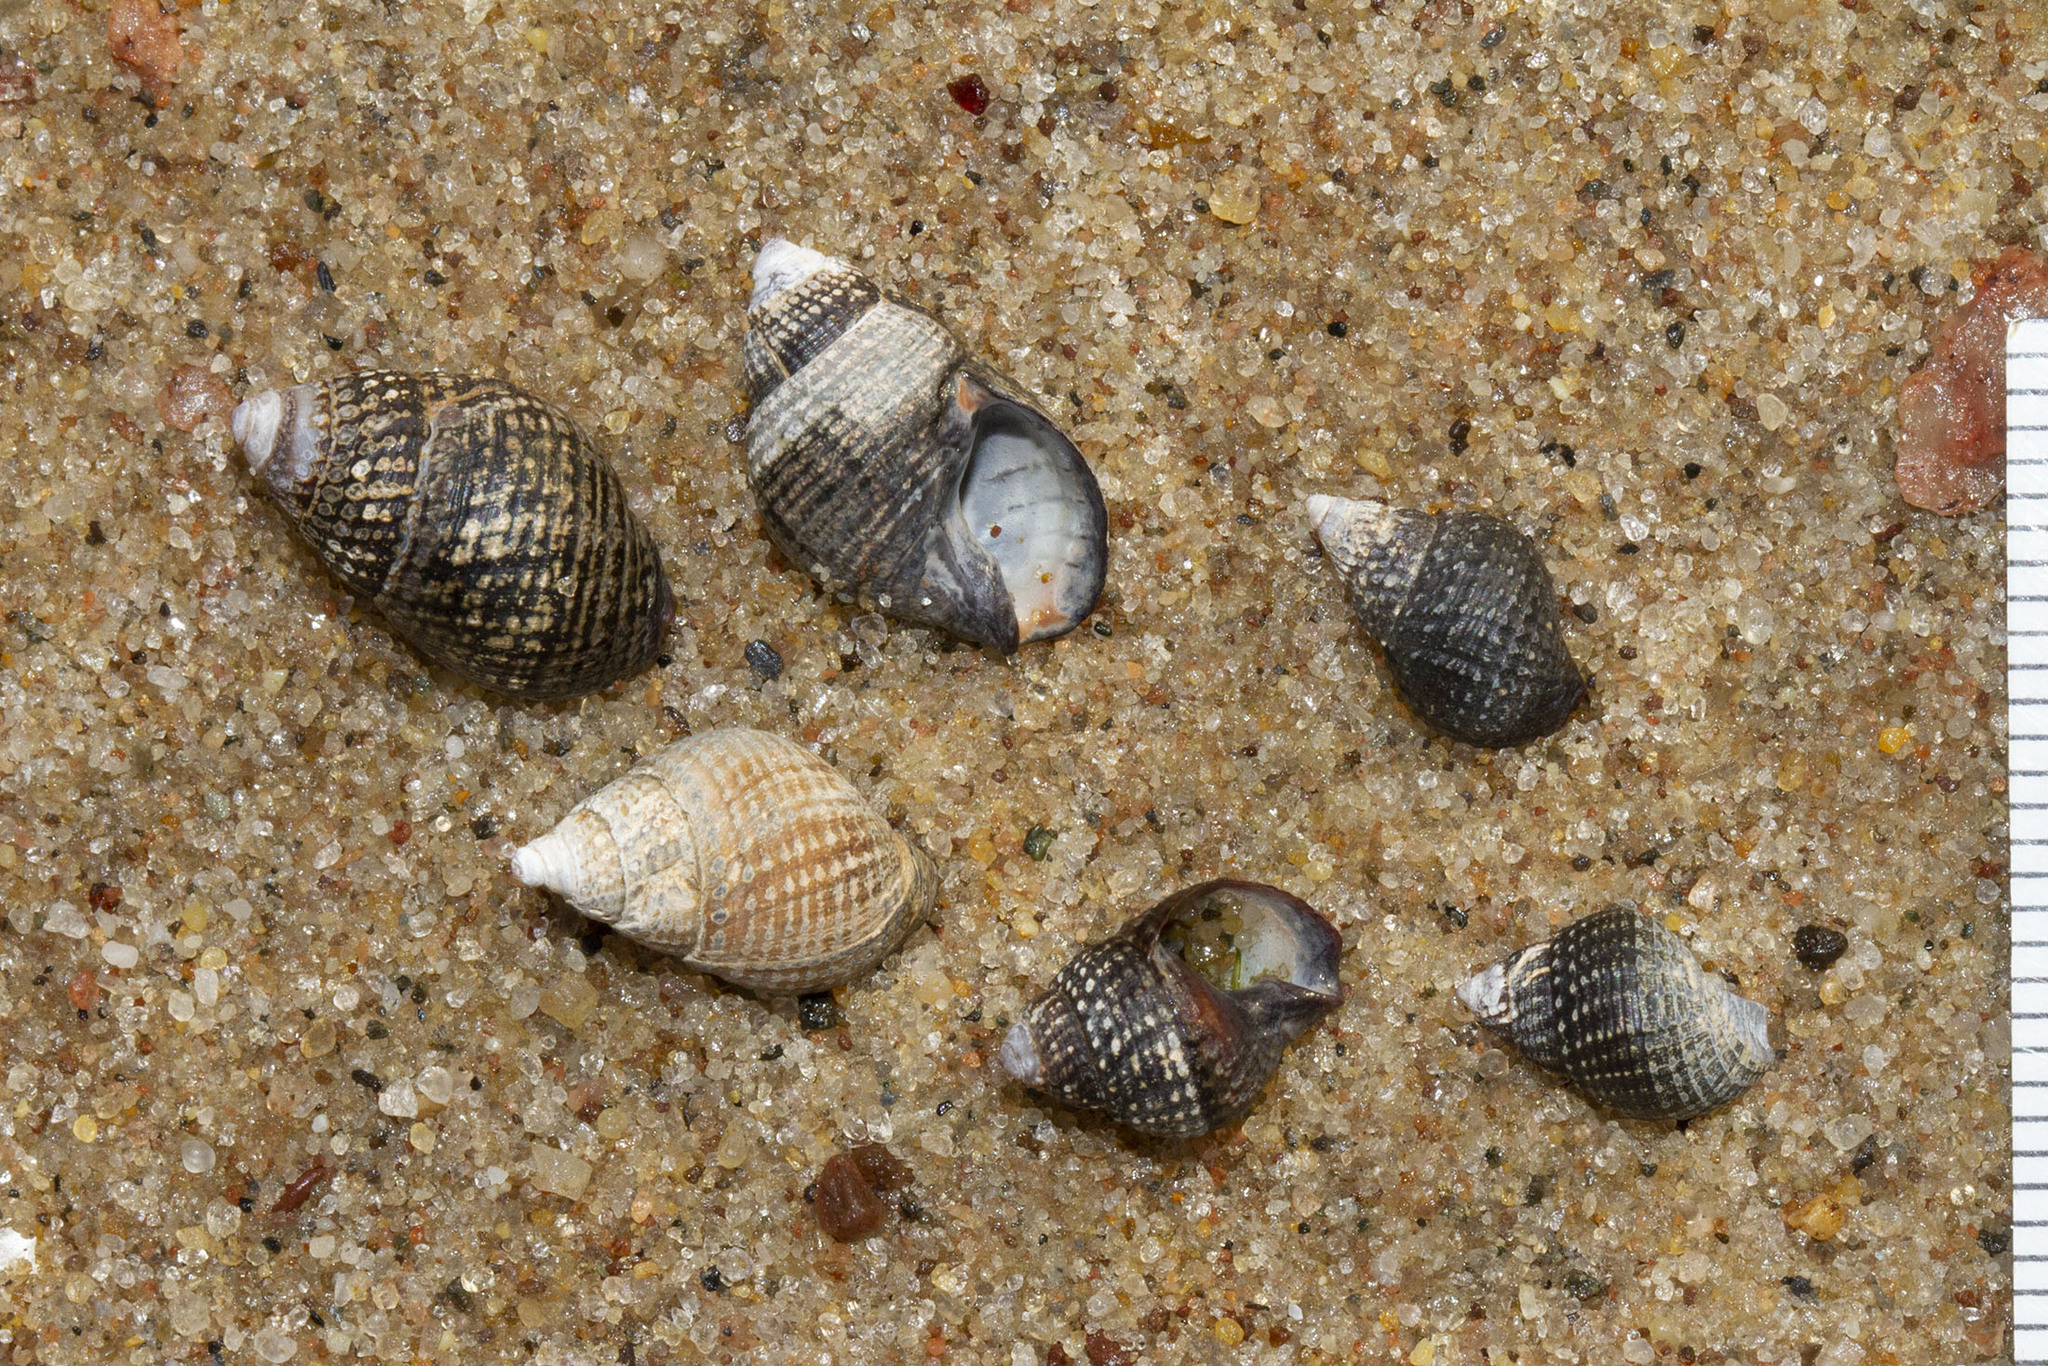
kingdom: Animalia
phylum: Mollusca
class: Gastropoda
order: Neogastropoda
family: Nassariidae
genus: Ilyanassa
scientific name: Ilyanassa obsoleta
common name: Eastern mudsnail
